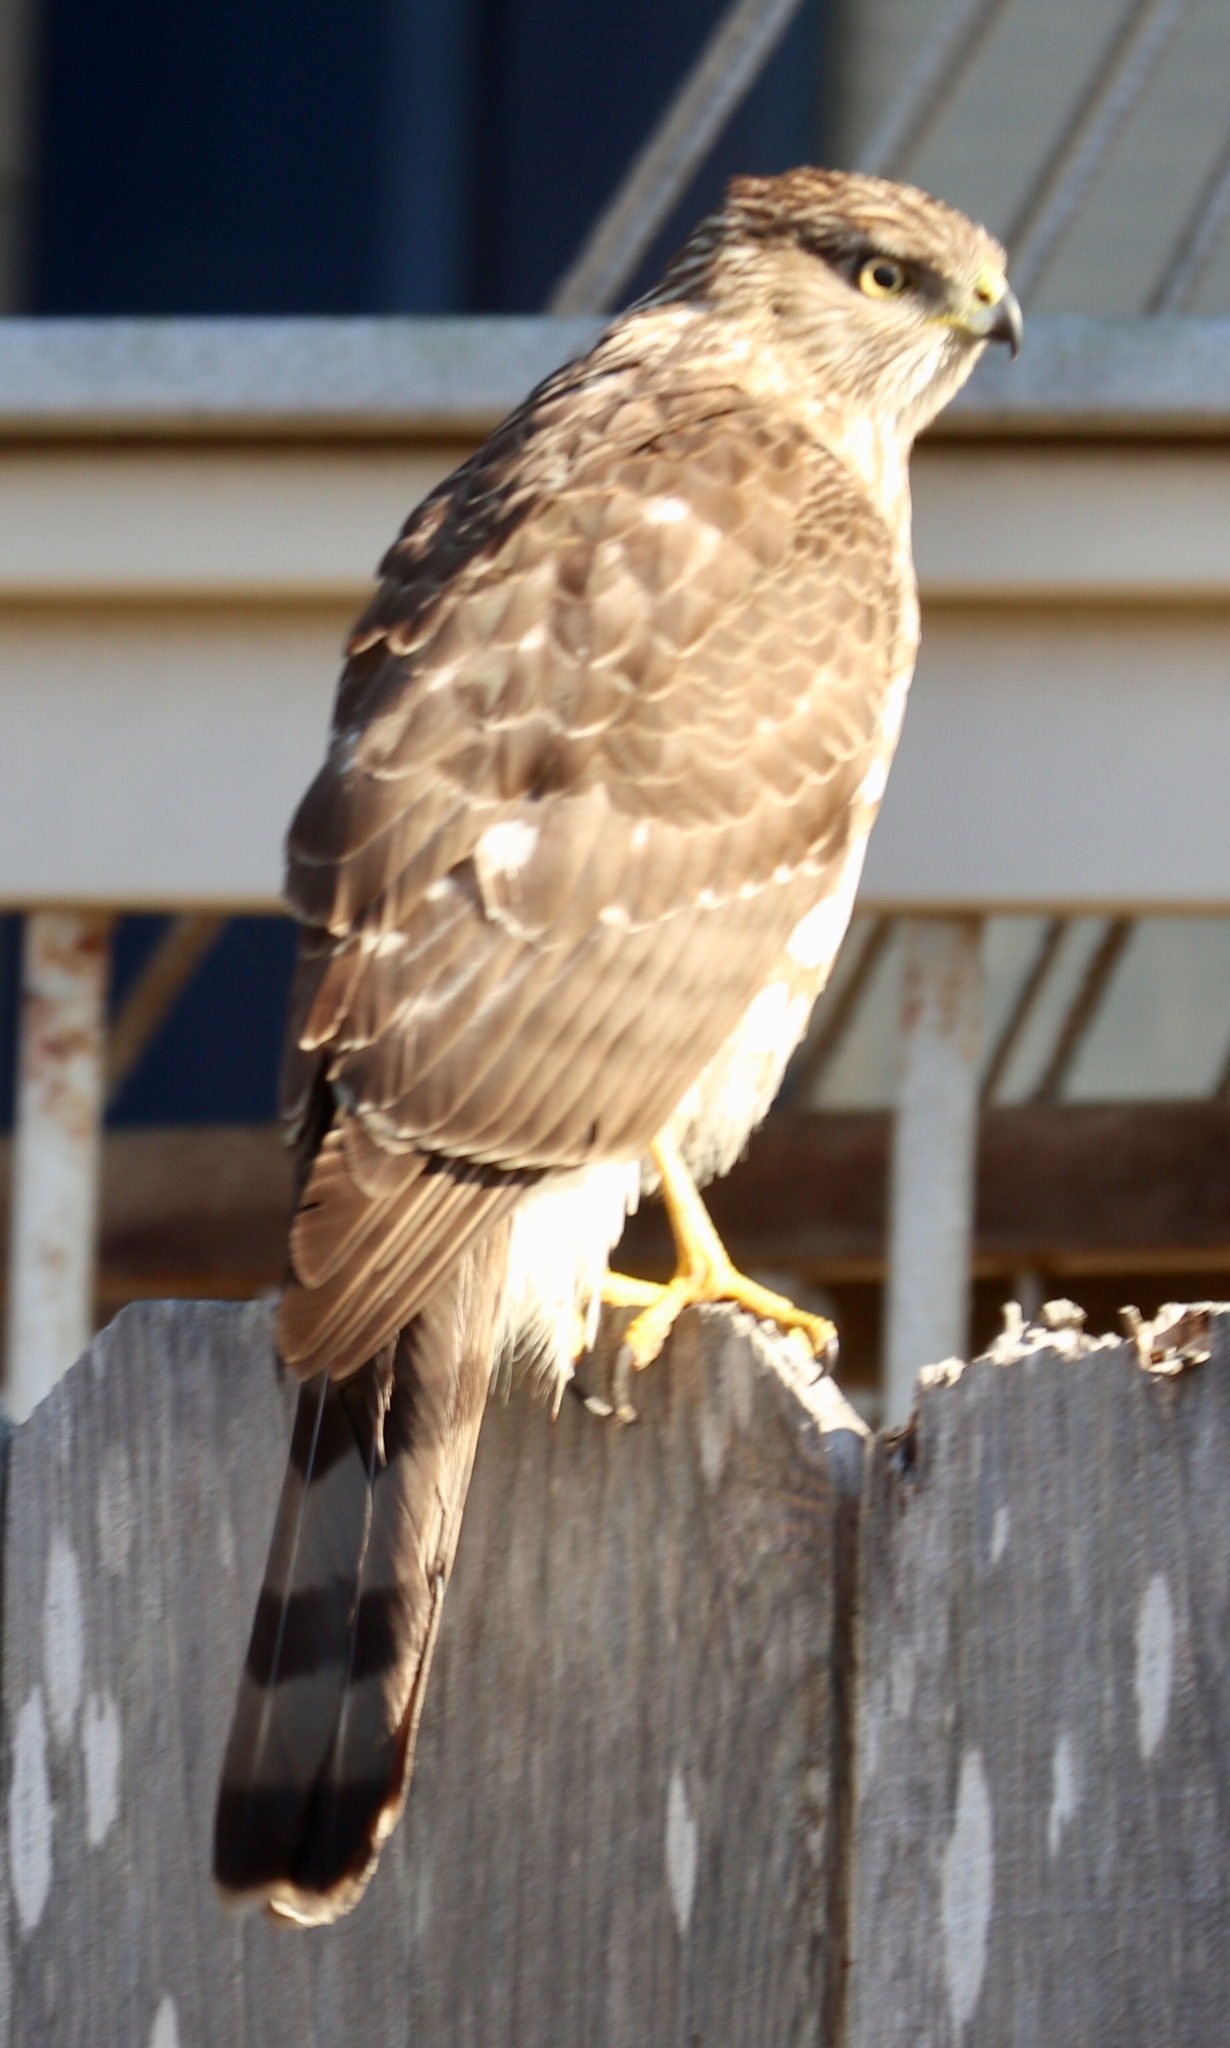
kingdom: Animalia
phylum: Chordata
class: Aves
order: Accipitriformes
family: Accipitridae
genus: Accipiter
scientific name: Accipiter cooperii
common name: Cooper's hawk
